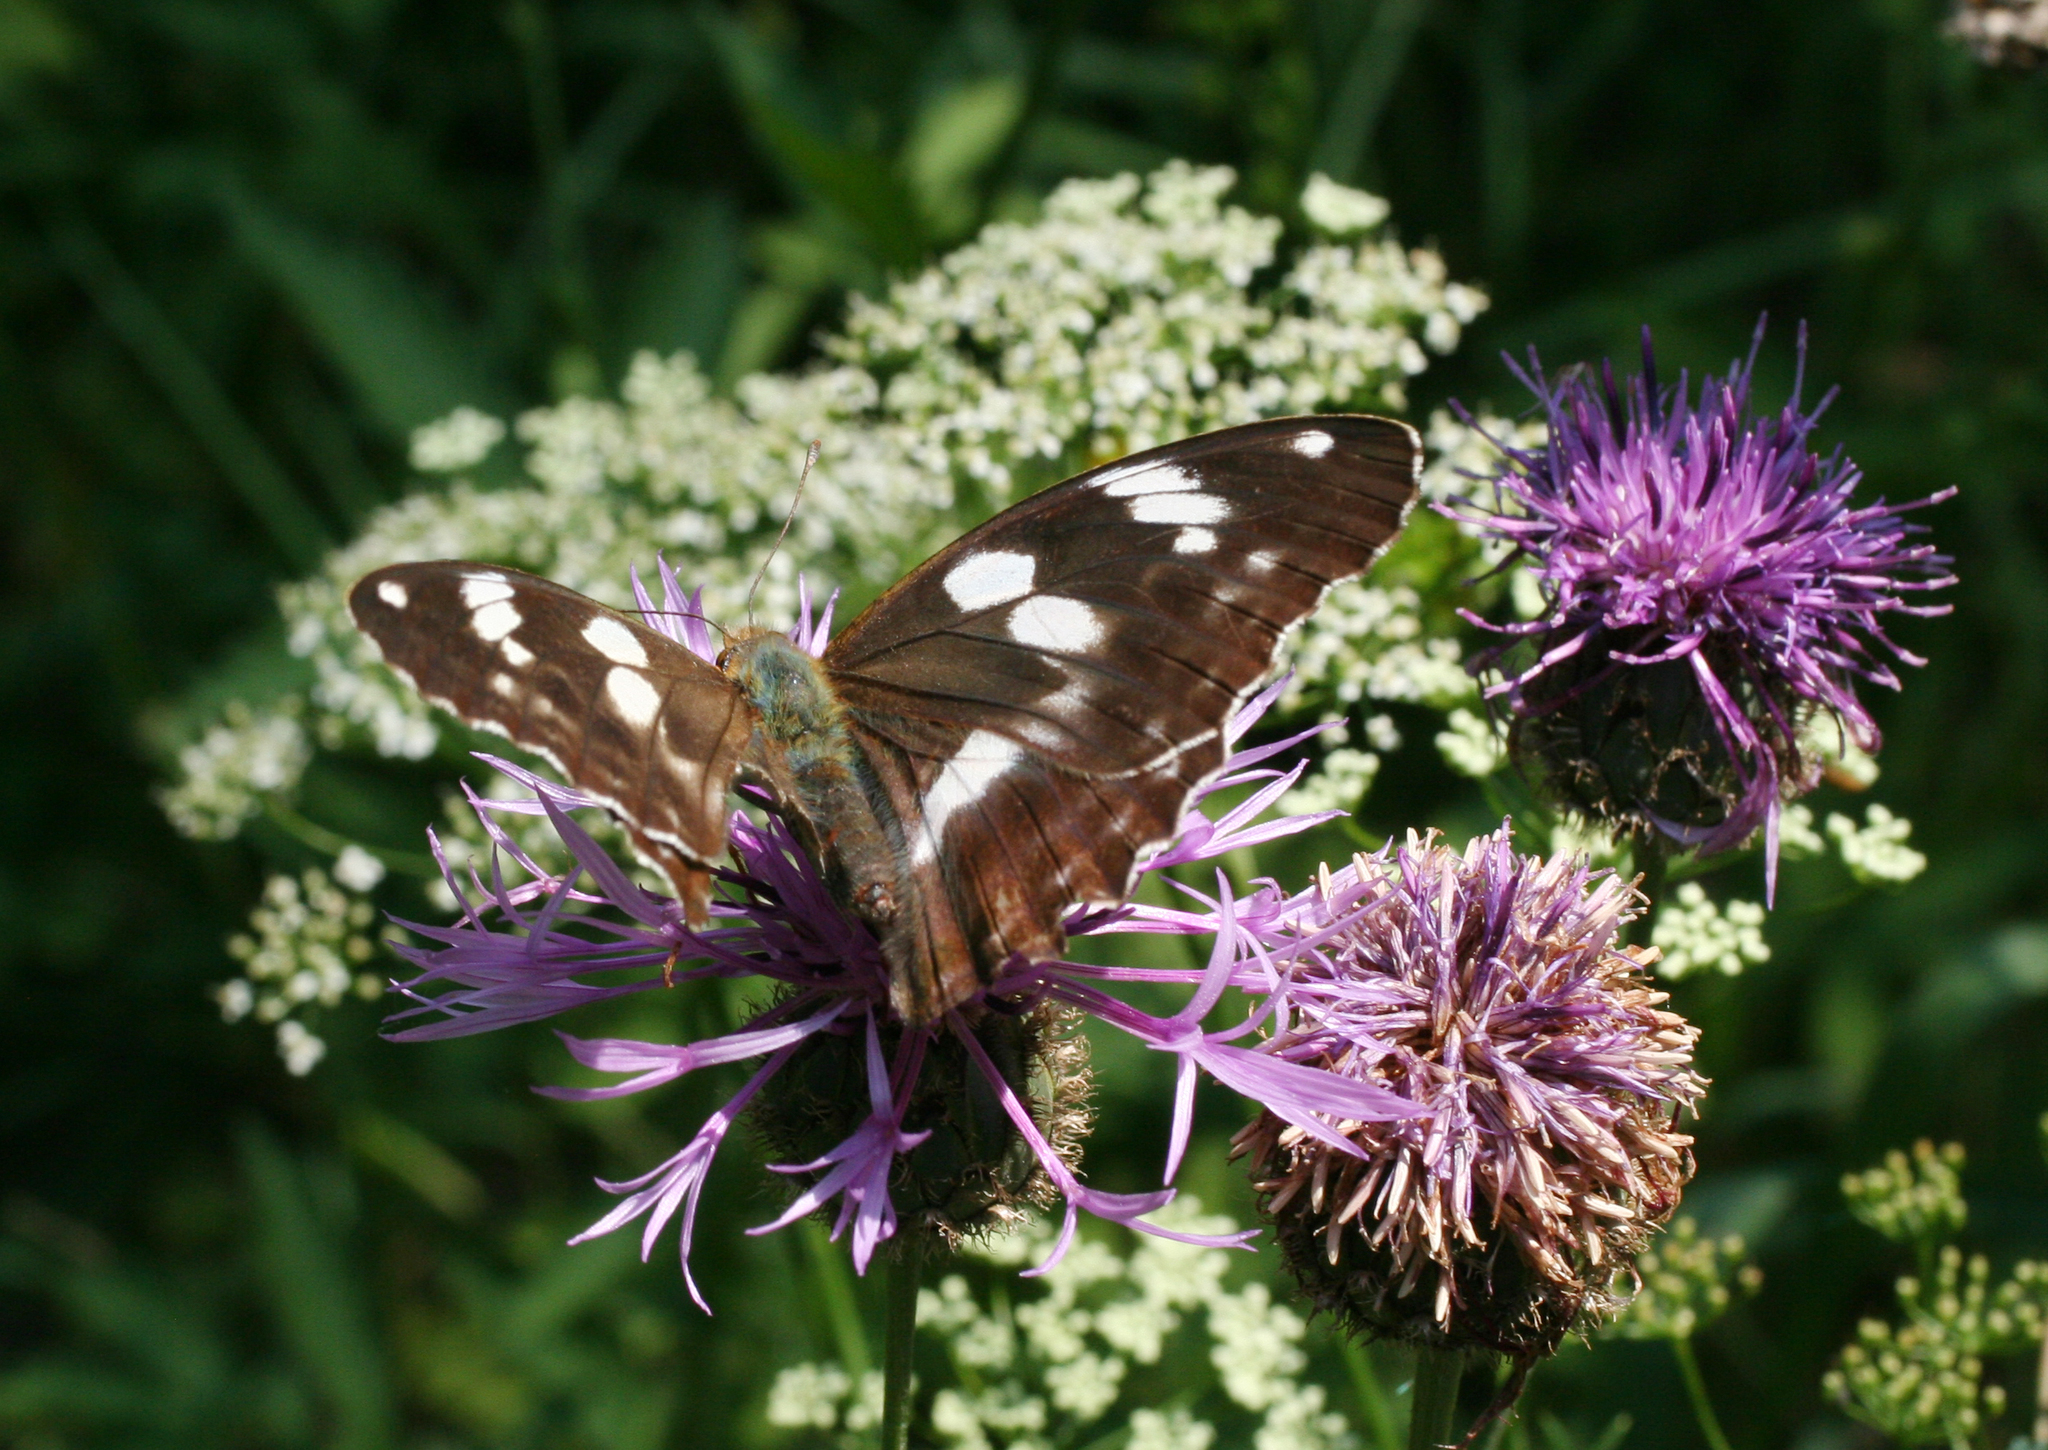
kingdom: Animalia
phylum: Arthropoda
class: Insecta
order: Lepidoptera
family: Nymphalidae
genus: Damora
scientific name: Damora sagana
